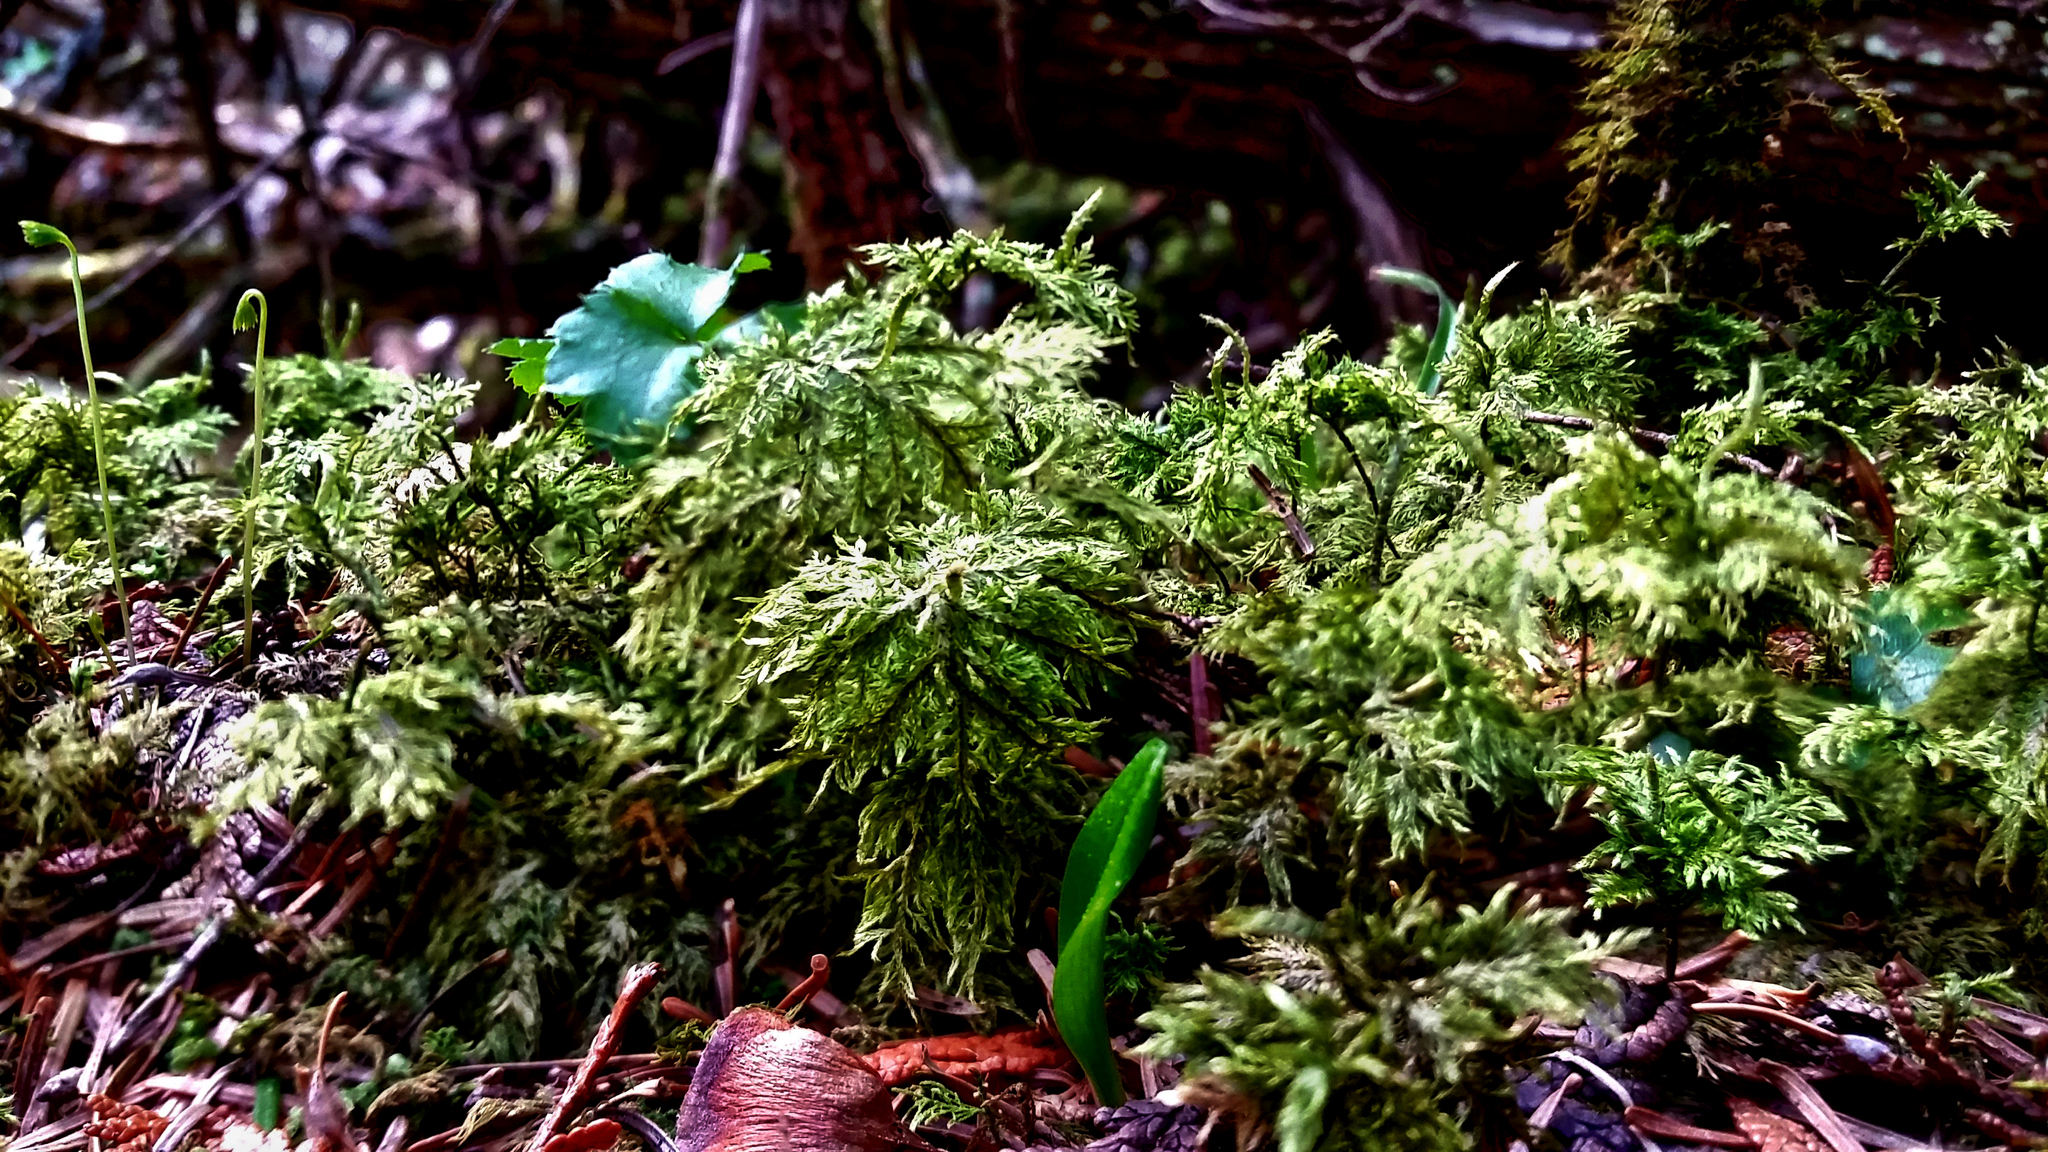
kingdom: Plantae
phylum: Bryophyta
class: Bryopsida
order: Hypnales
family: Hylocomiaceae
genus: Hylocomium
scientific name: Hylocomium splendens
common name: Stairstep moss
